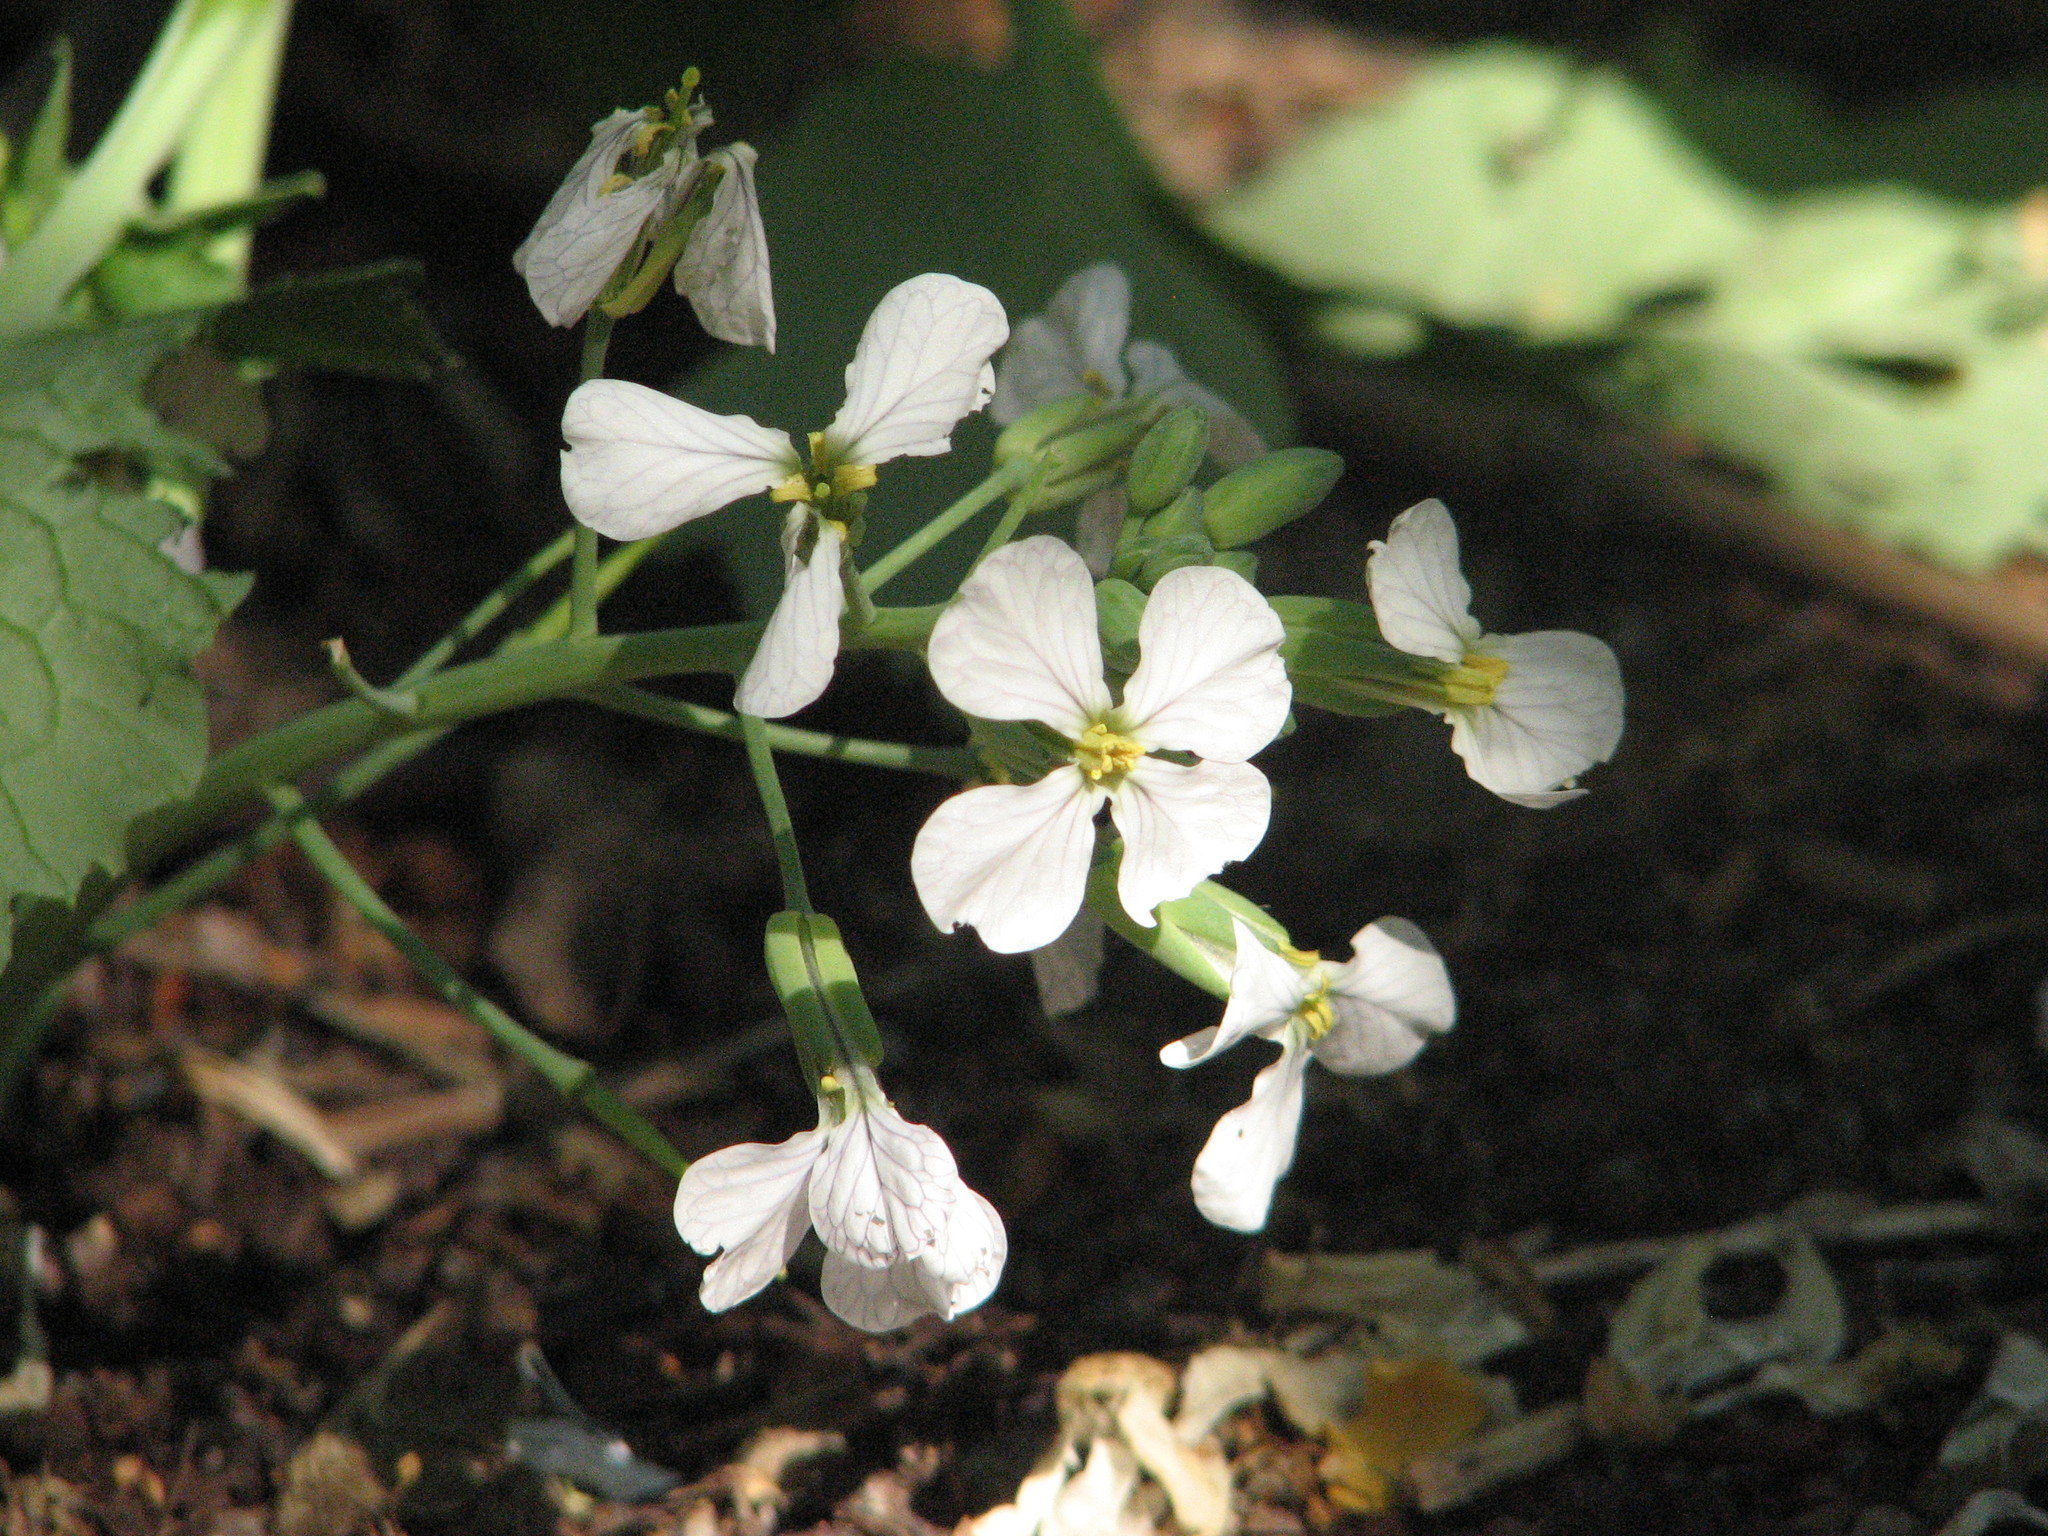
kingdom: Plantae
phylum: Tracheophyta
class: Magnoliopsida
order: Brassicales
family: Brassicaceae
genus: Raphanus
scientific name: Raphanus raphanistrum
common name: Wild radish
